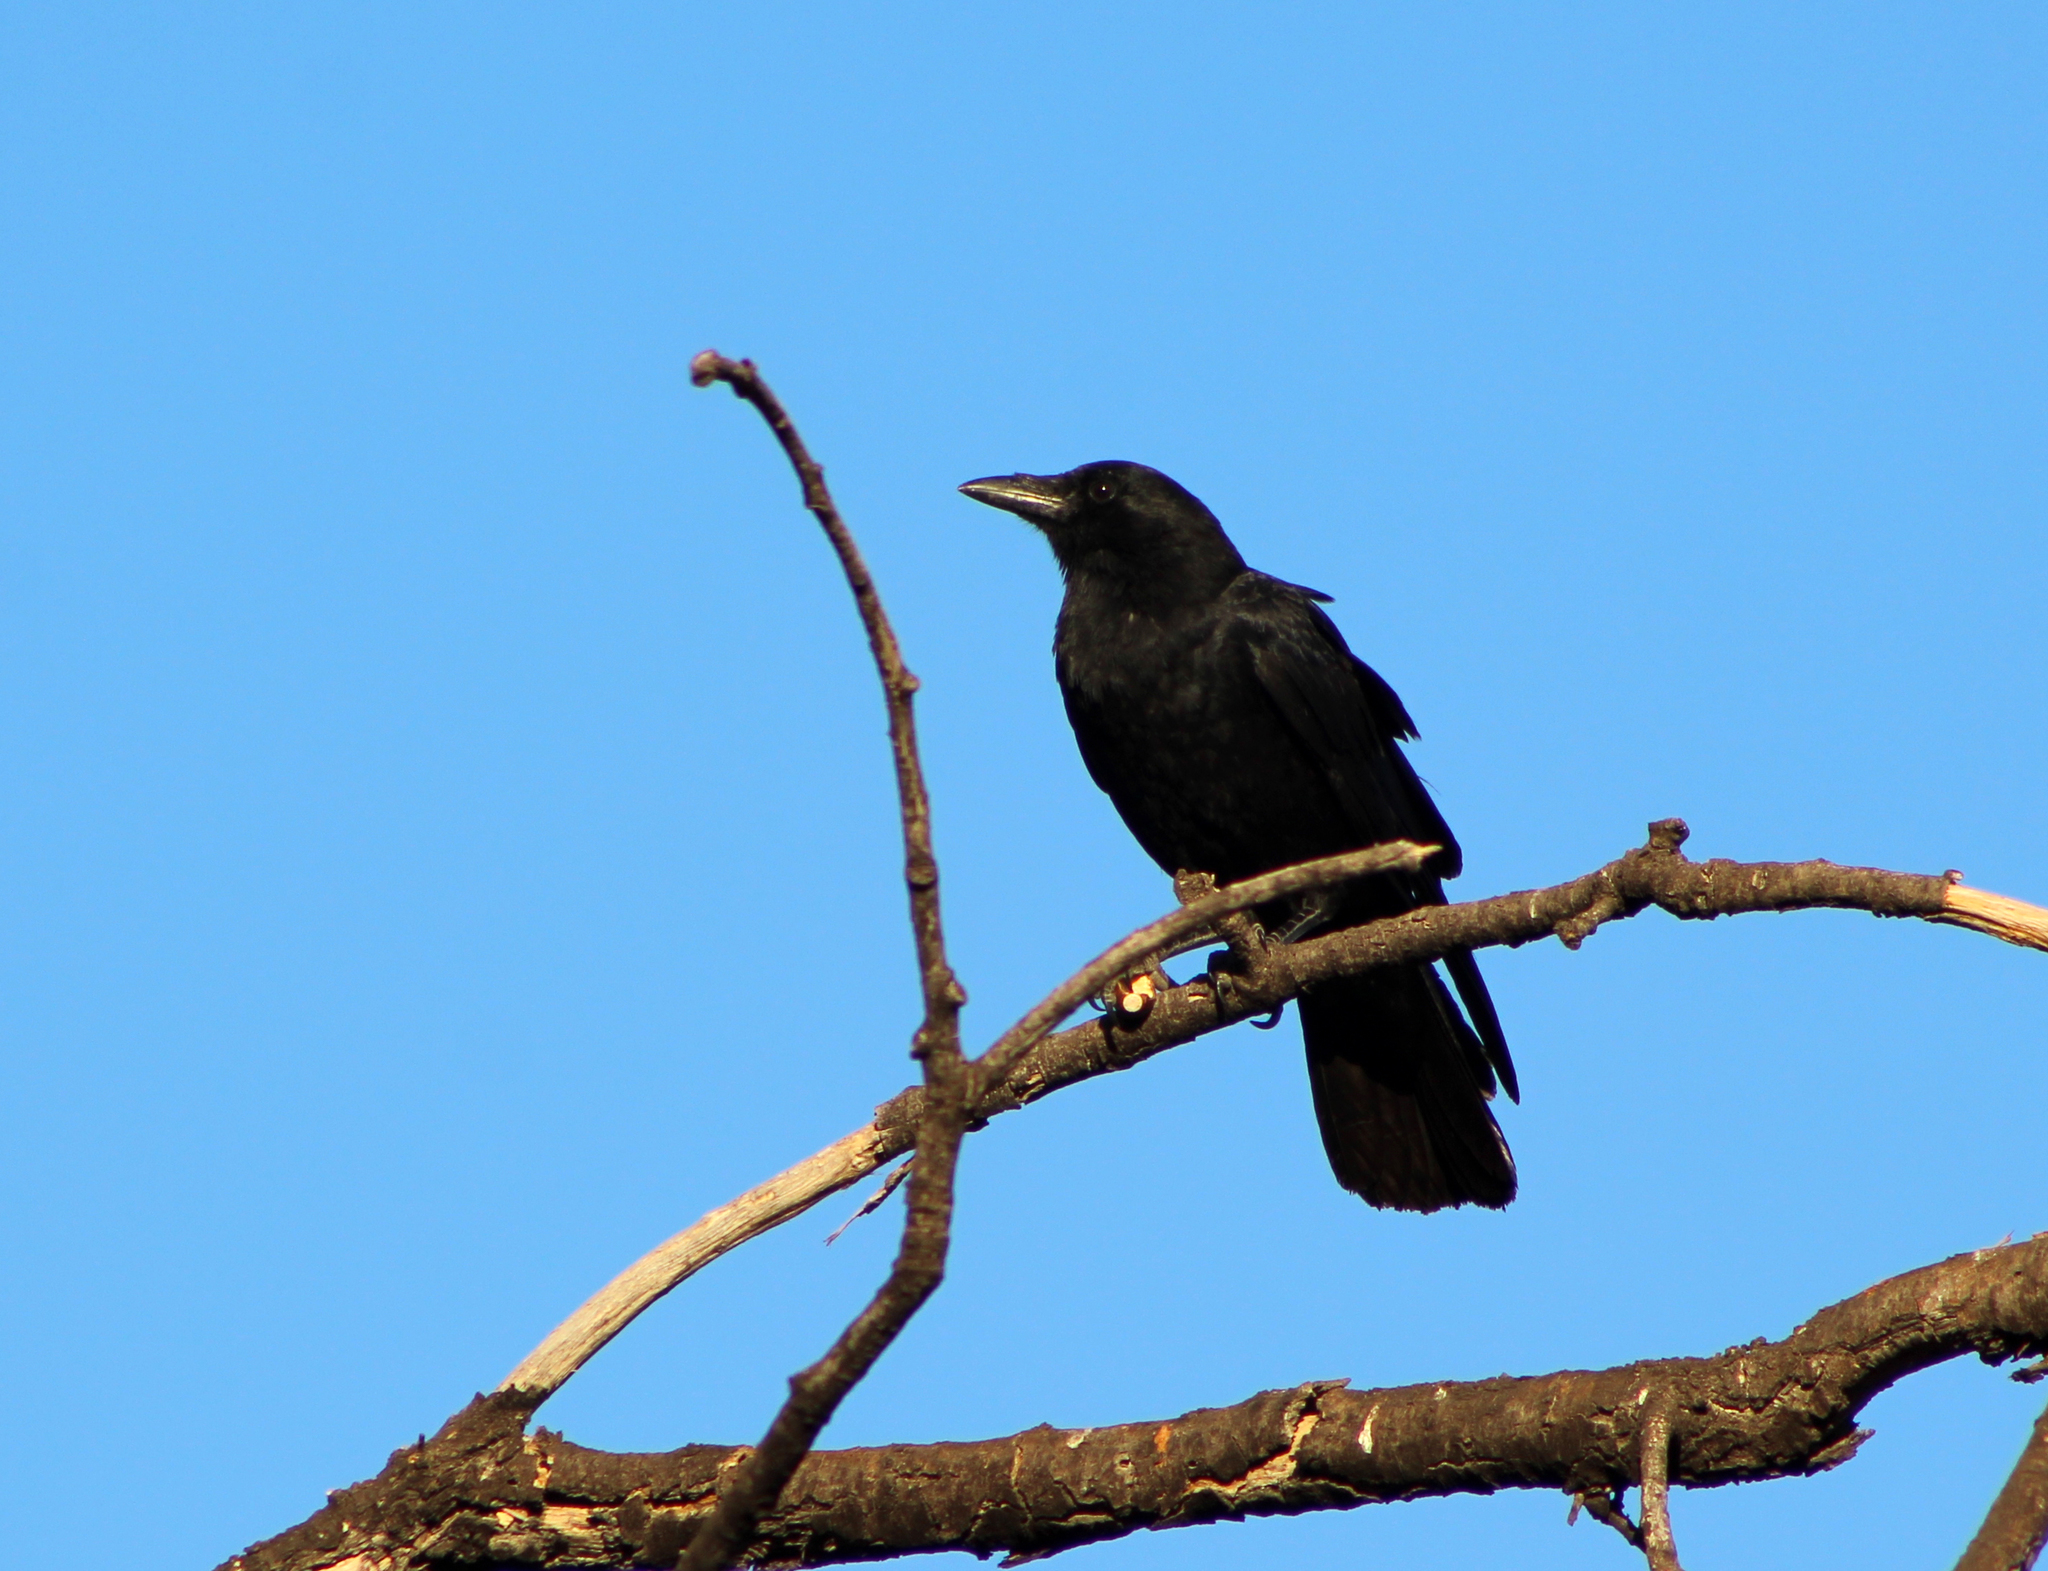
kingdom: Animalia
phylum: Chordata
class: Aves
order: Passeriformes
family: Corvidae
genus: Corvus
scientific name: Corvus brachyrhynchos
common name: American crow
